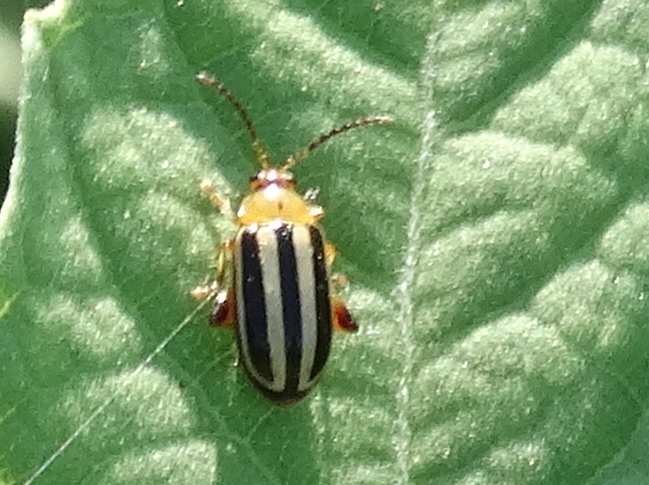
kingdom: Animalia
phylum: Arthropoda
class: Insecta
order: Coleoptera
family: Chrysomelidae
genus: Disonycha
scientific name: Disonycha glabrata
